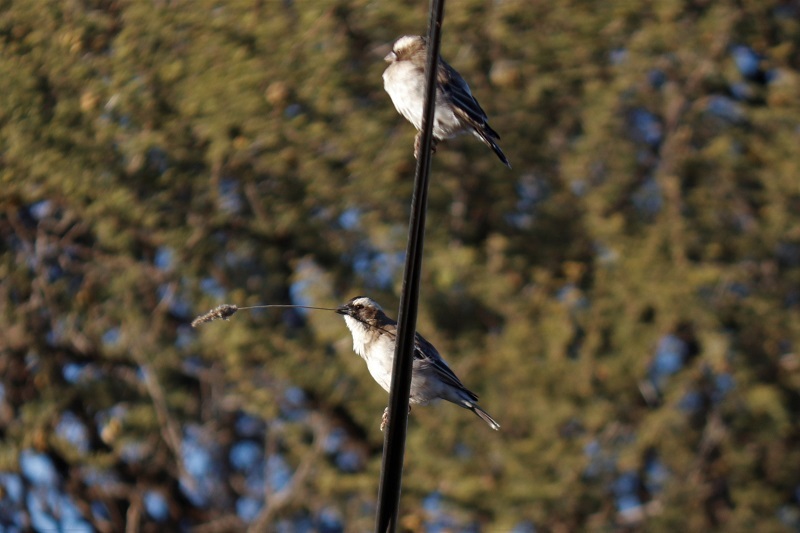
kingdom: Animalia
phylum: Chordata
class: Aves
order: Passeriformes
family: Passeridae
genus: Plocepasser
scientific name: Plocepasser mahali
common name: White-browed sparrow-weaver
